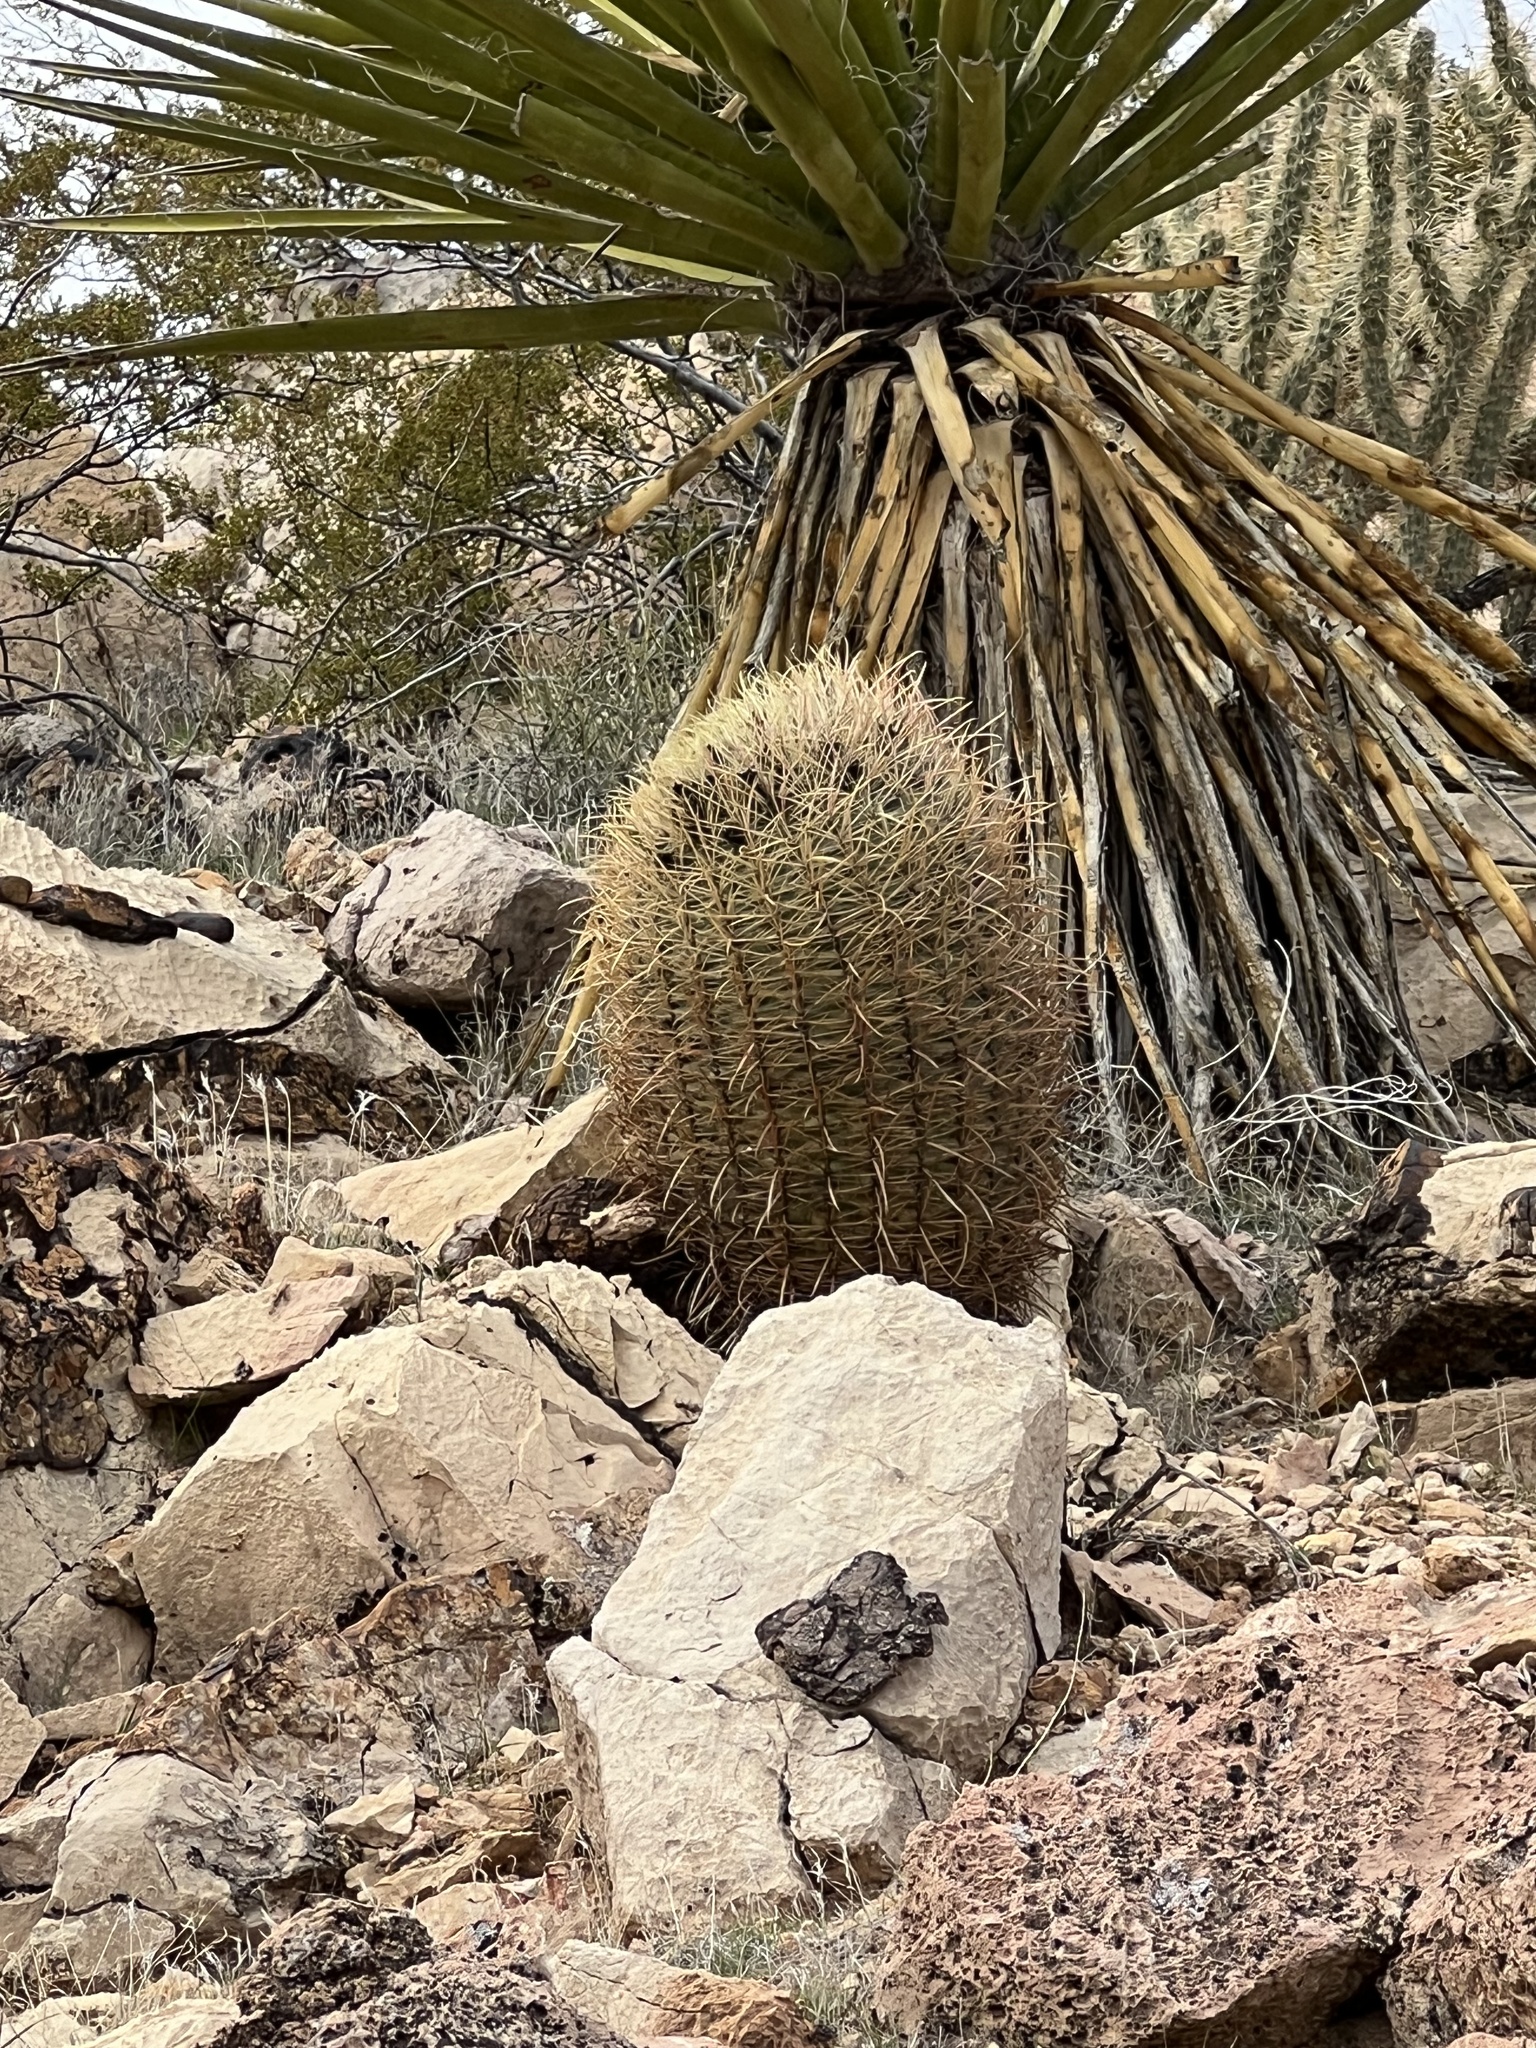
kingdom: Plantae
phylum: Tracheophyta
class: Magnoliopsida
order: Caryophyllales
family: Cactaceae
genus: Ferocactus
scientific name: Ferocactus cylindraceus
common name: California barrel cactus
